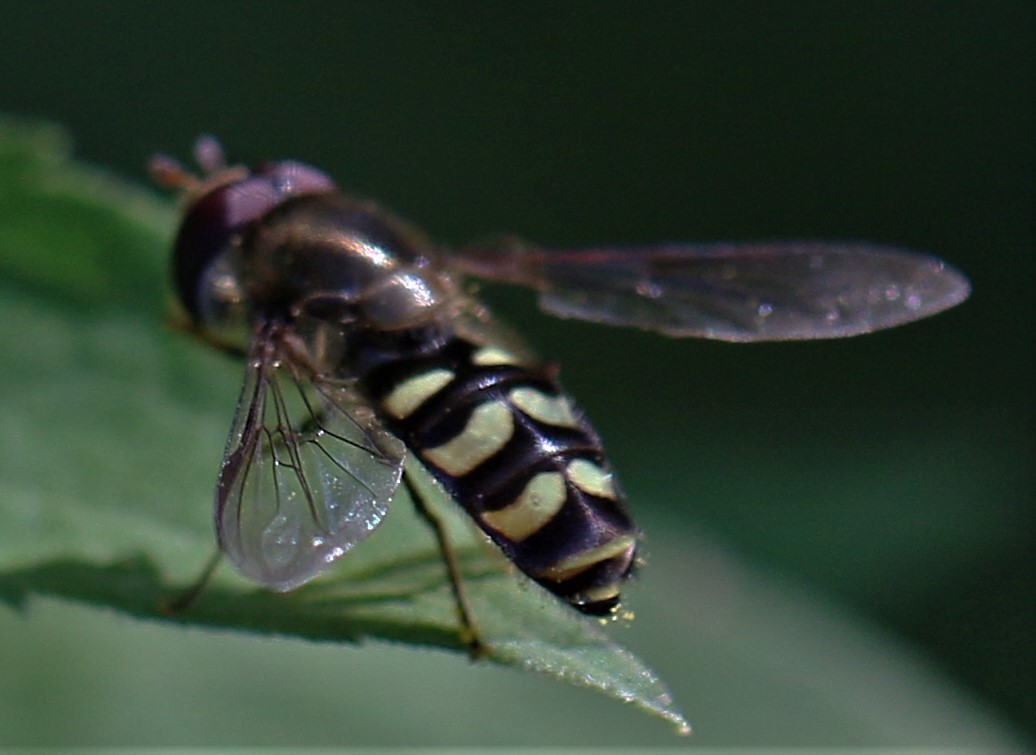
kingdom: Animalia
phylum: Arthropoda
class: Insecta
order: Diptera
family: Syrphidae
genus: Lapposyrphus
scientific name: Lapposyrphus lapponicus
